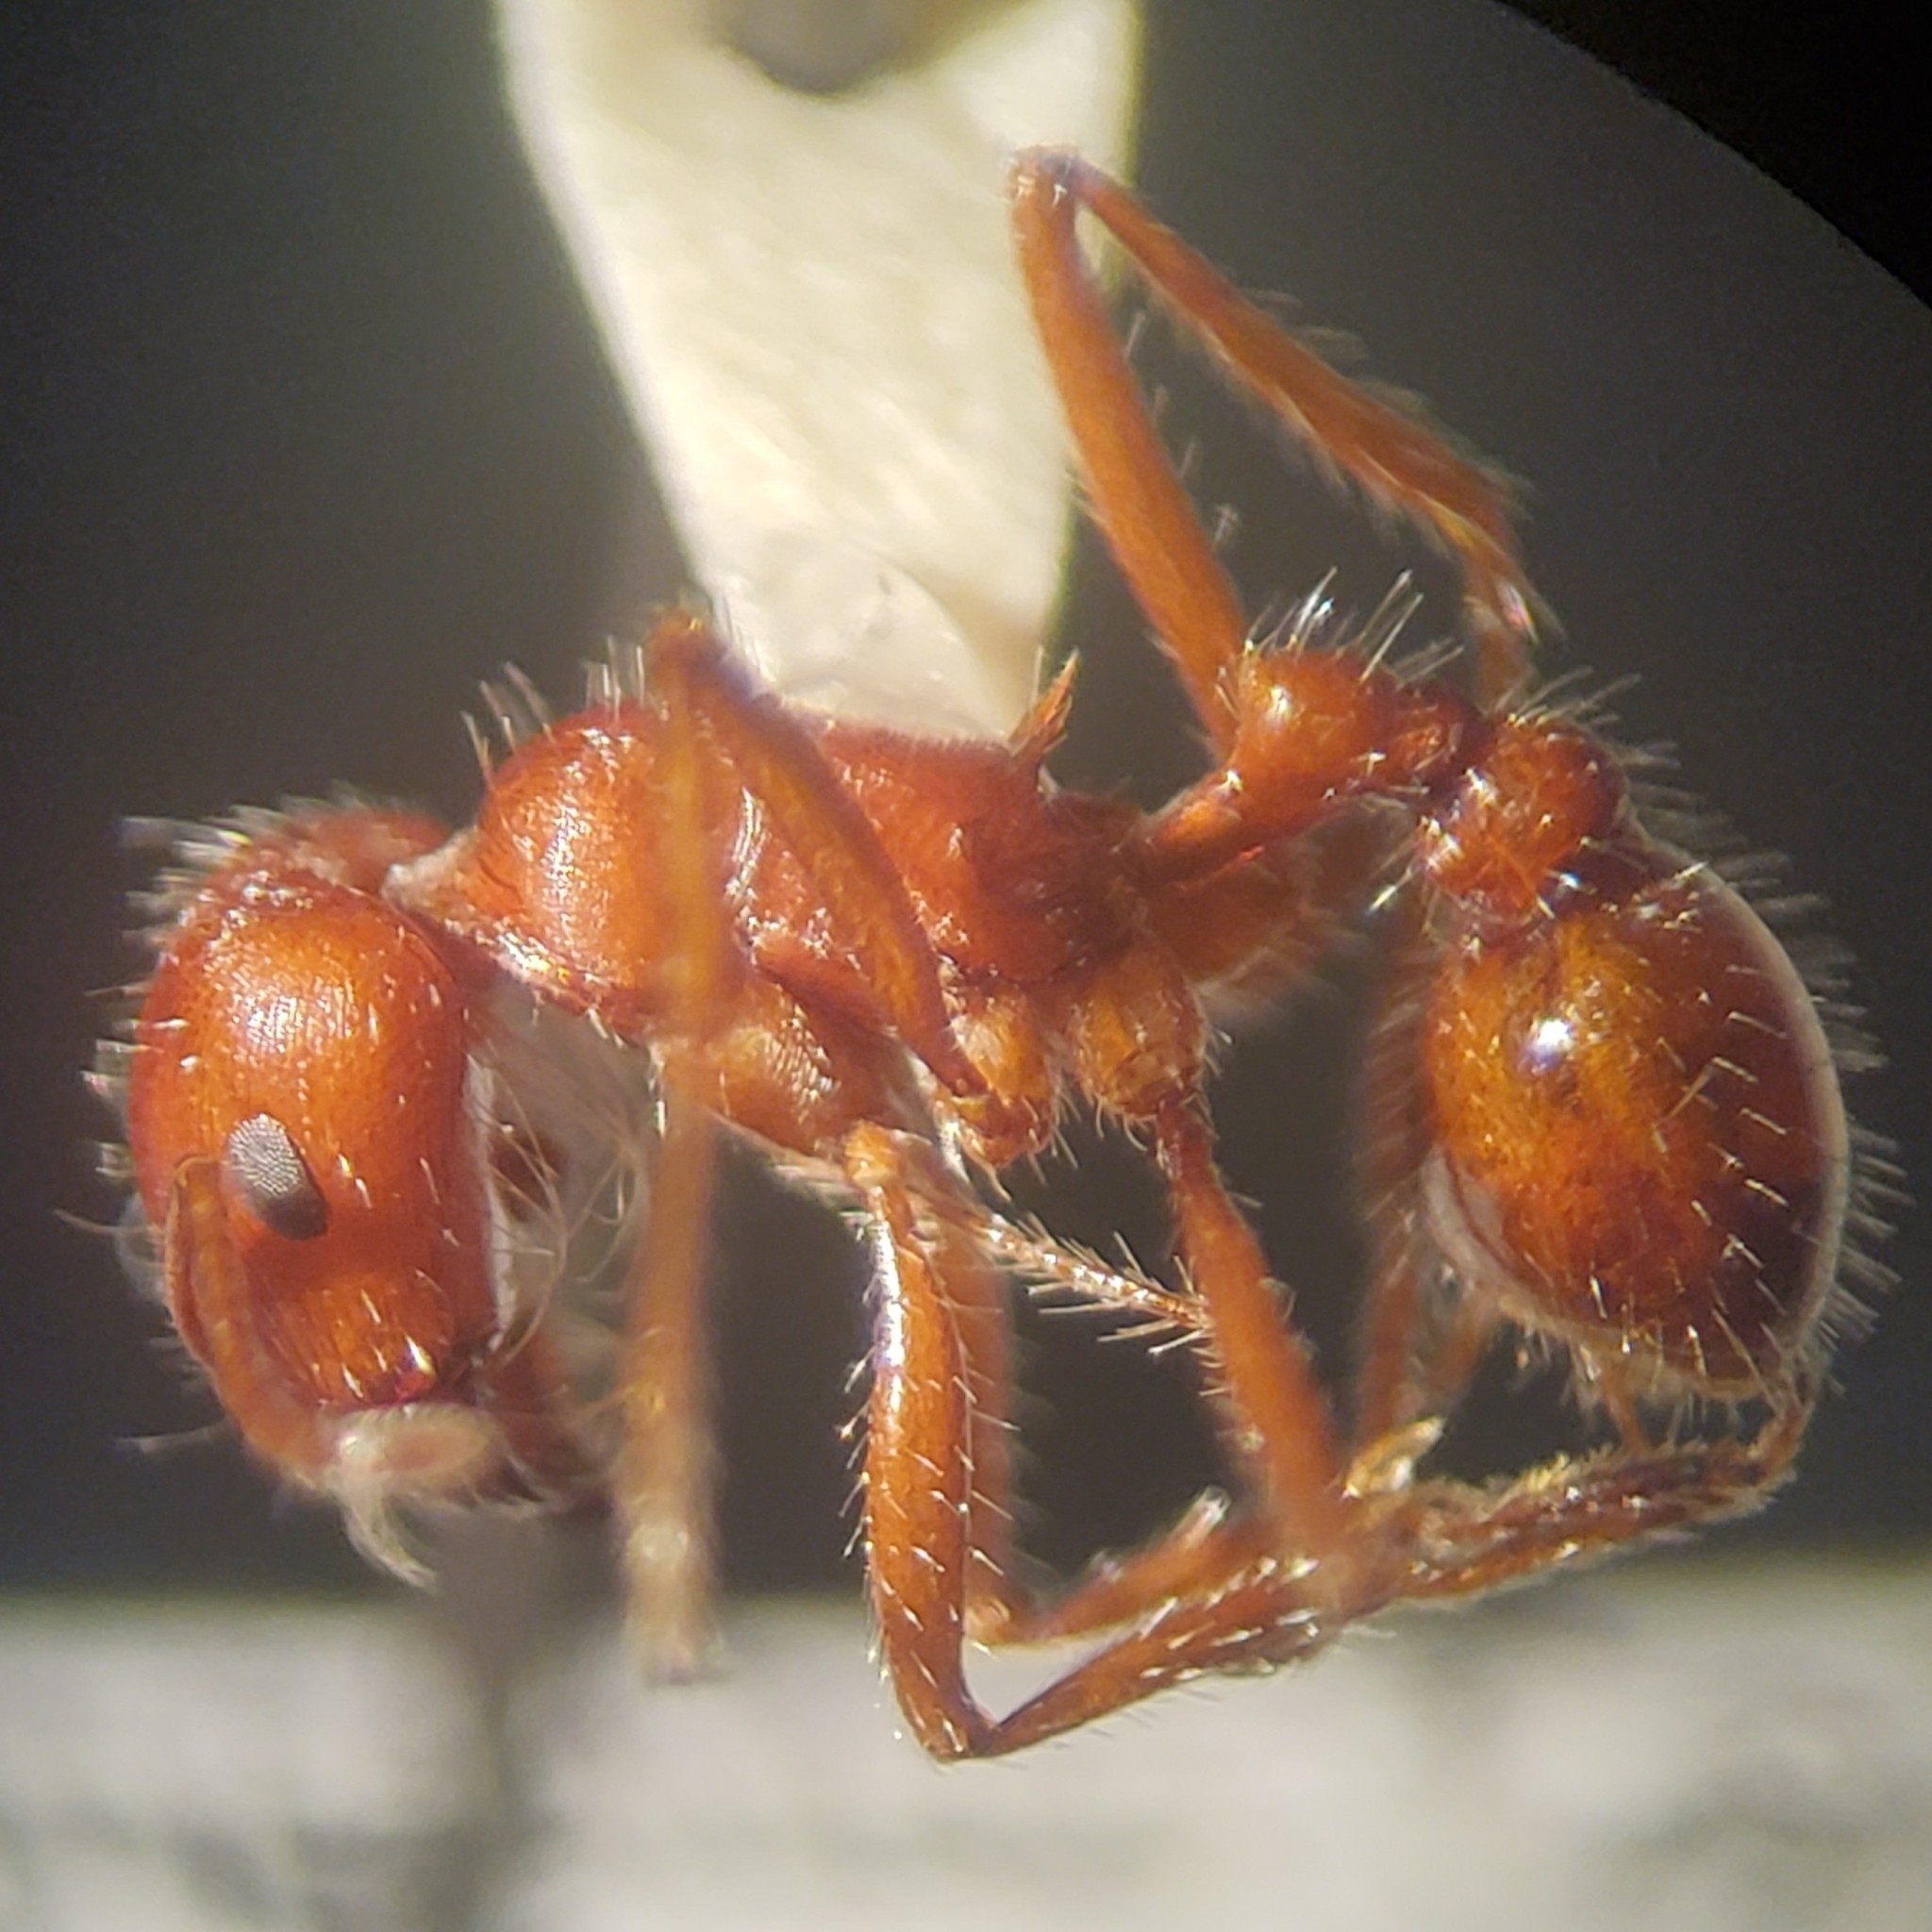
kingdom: Animalia
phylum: Arthropoda
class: Insecta
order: Hymenoptera
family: Formicidae
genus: Pogonomyrmex
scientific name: Pogonomyrmex subnitidus
